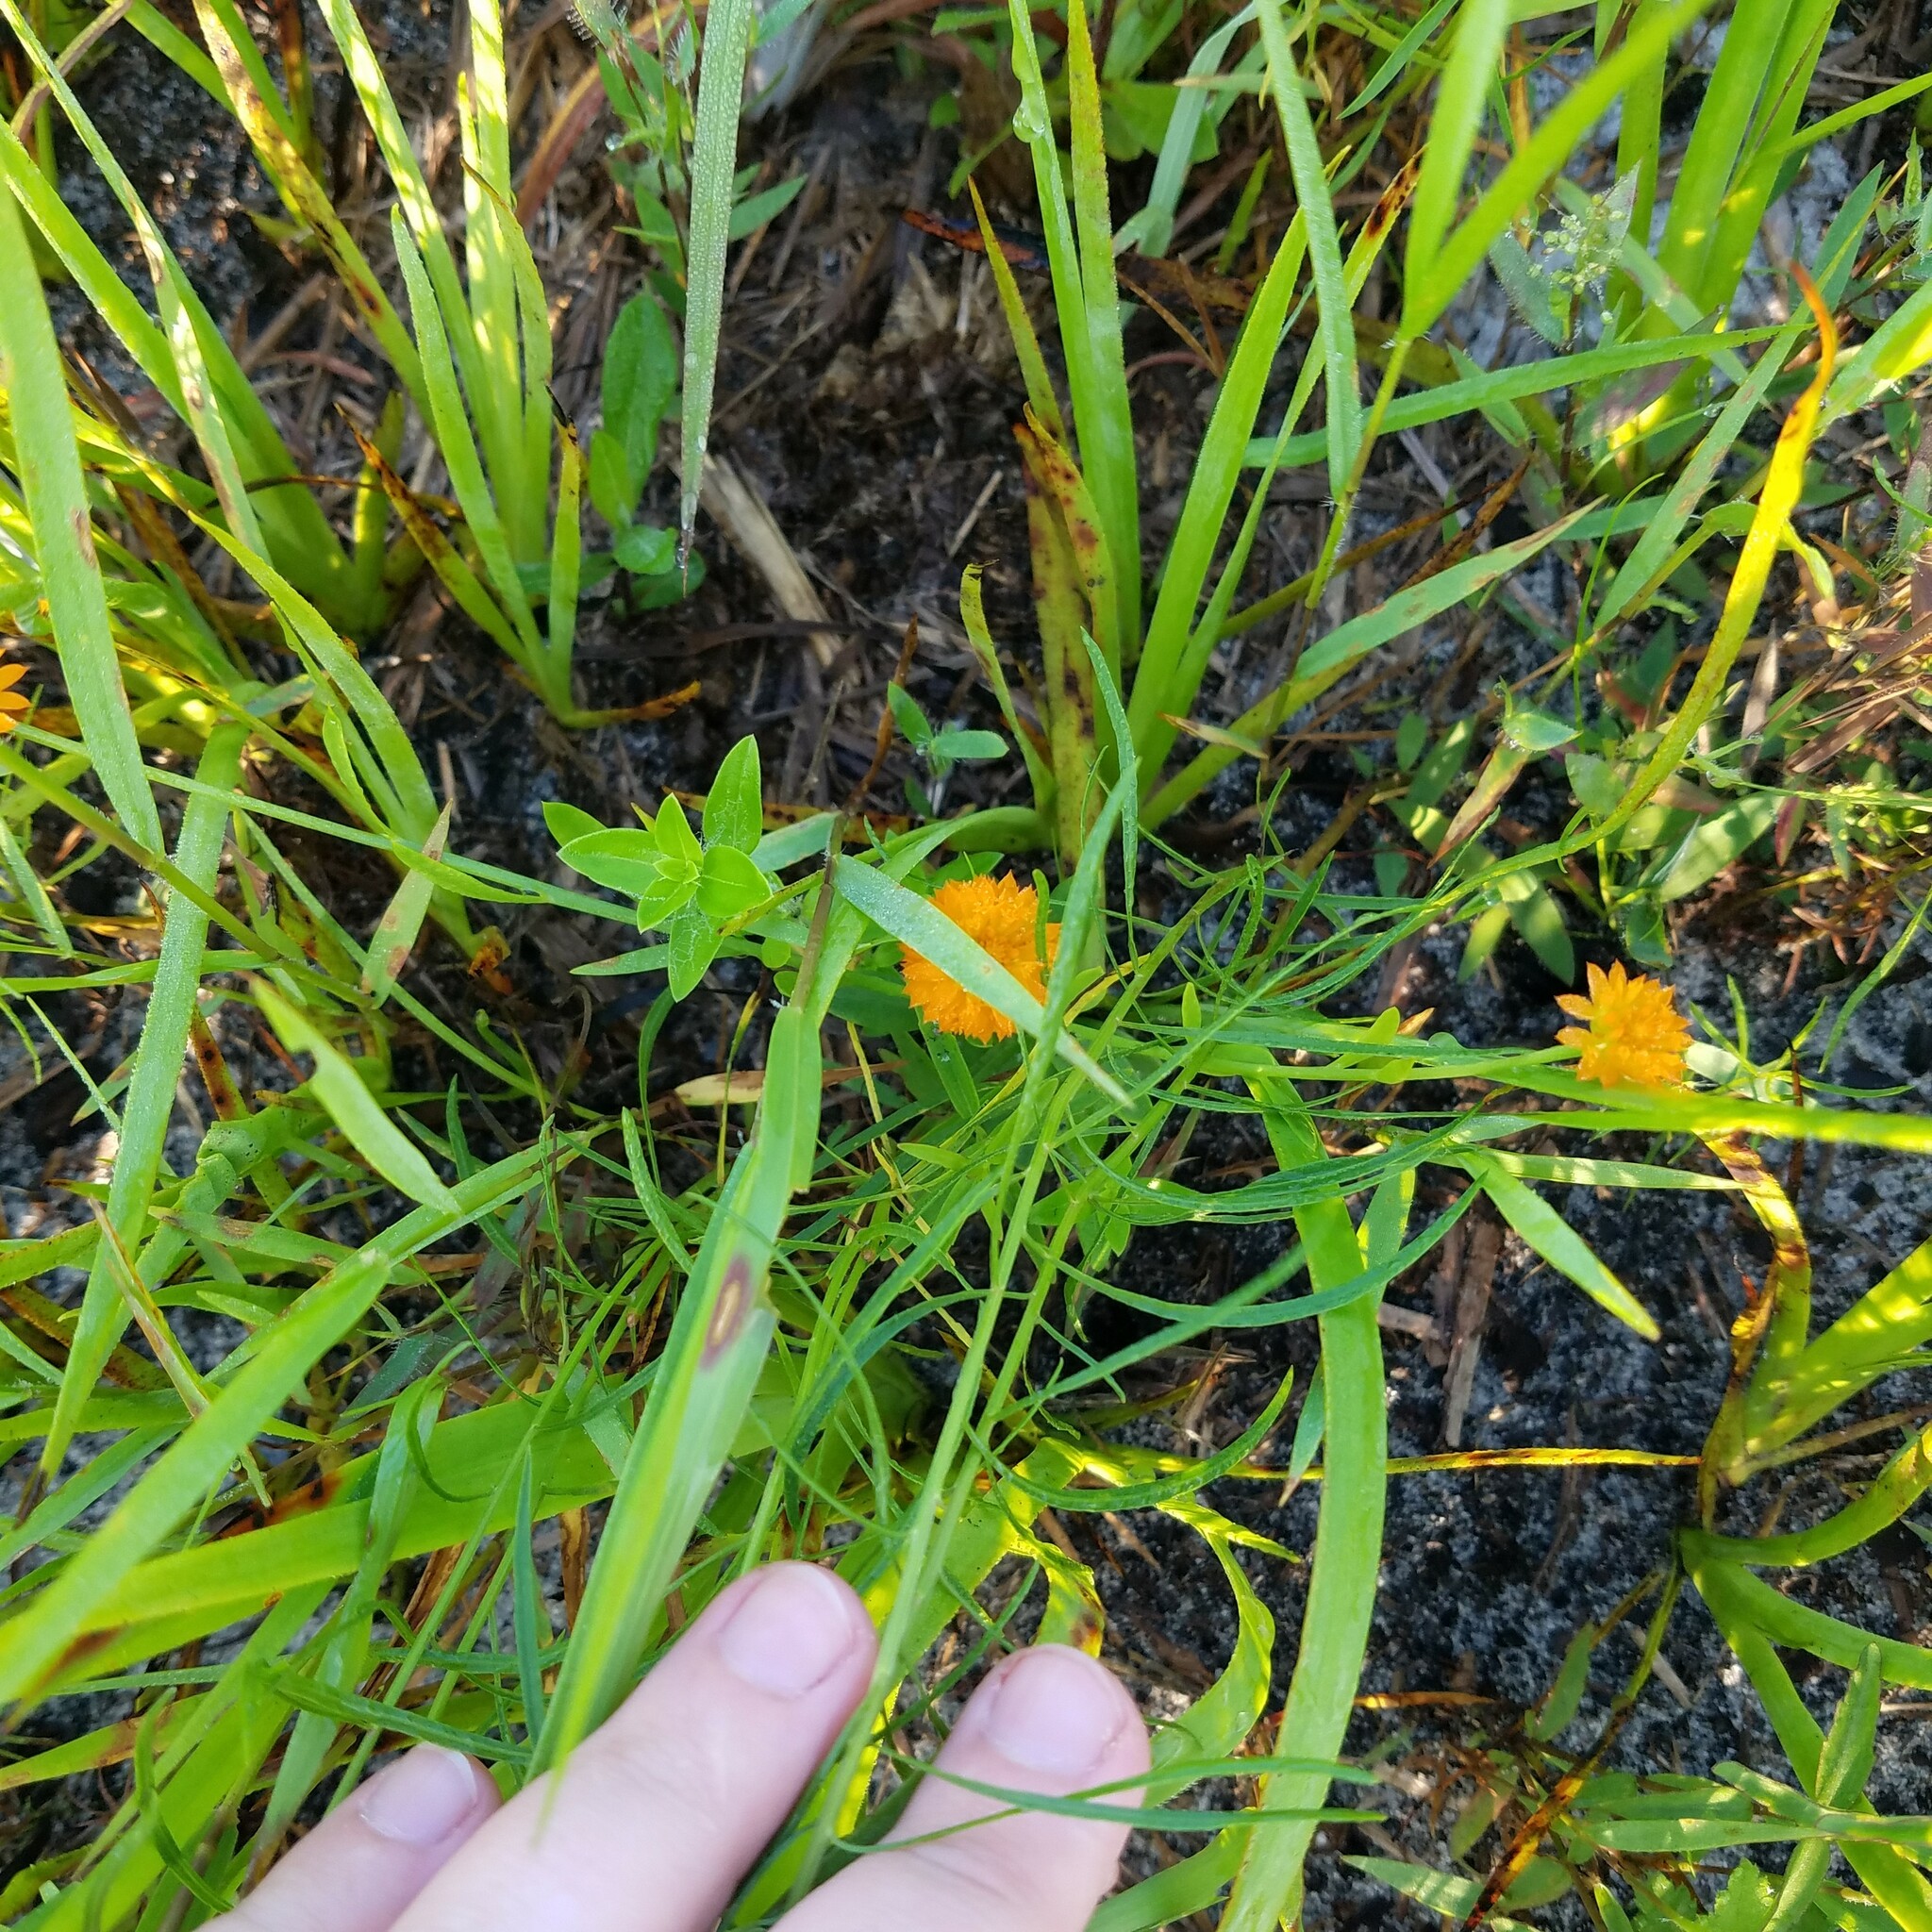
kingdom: Plantae
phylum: Tracheophyta
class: Magnoliopsida
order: Fabales
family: Polygalaceae
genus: Polygala
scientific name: Polygala lutea
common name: Orange milkwort
